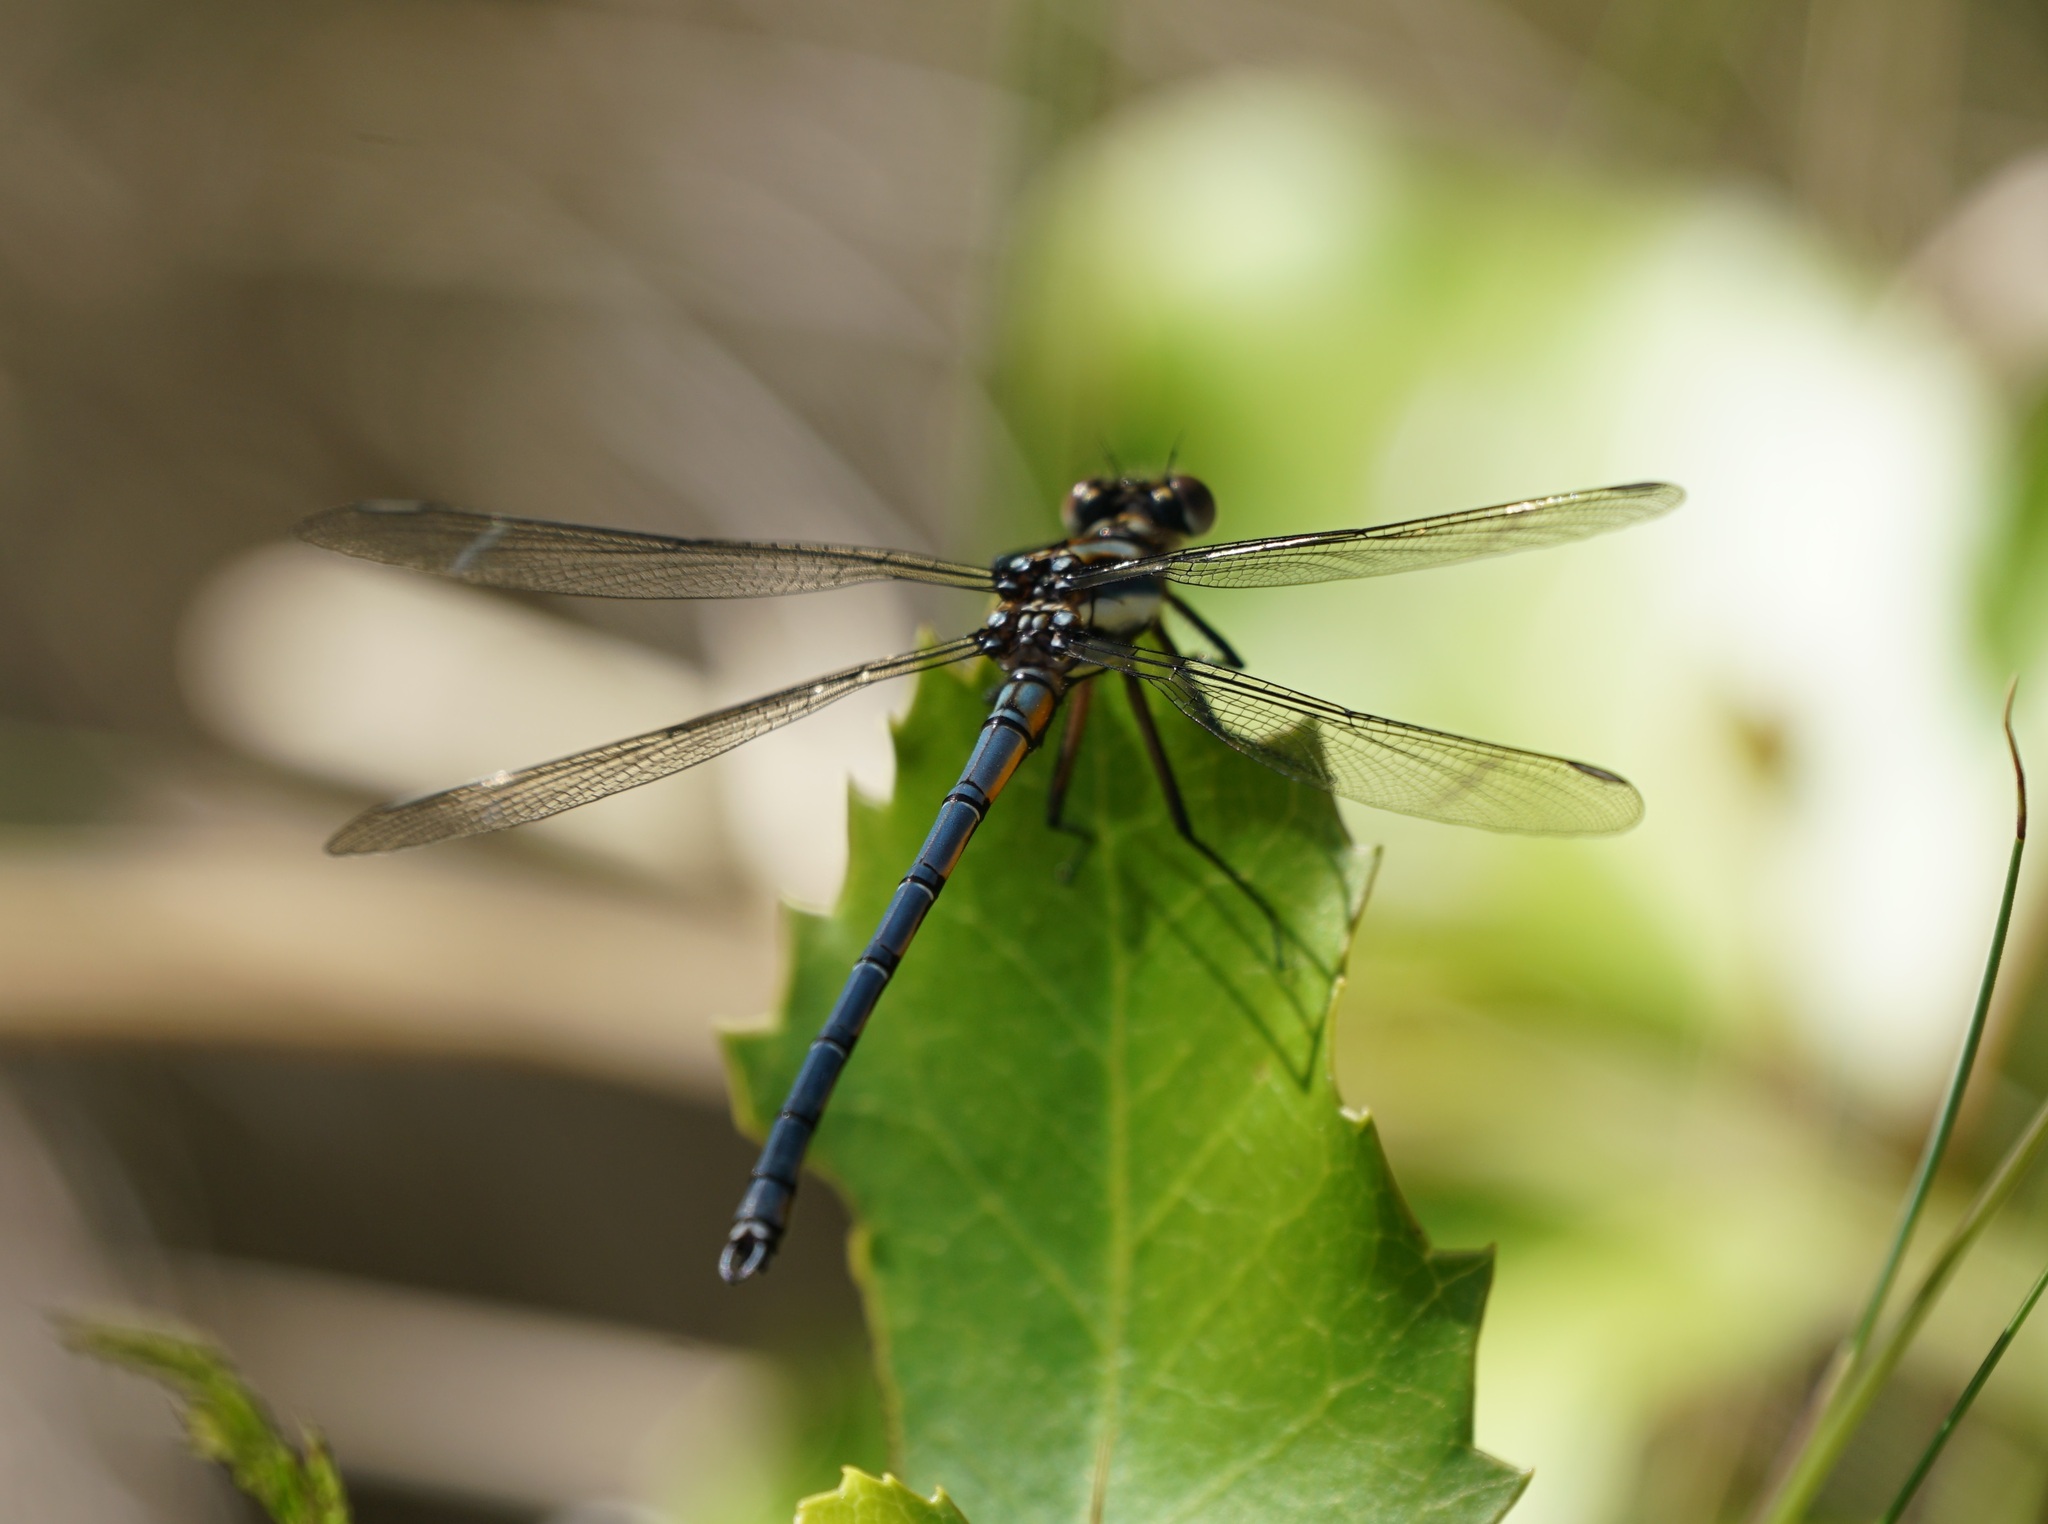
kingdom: Animalia
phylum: Arthropoda
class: Insecta
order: Odonata
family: Lestoideidae
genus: Diphlebia
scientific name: Diphlebia lestoides
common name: Whitewater rockmaster
